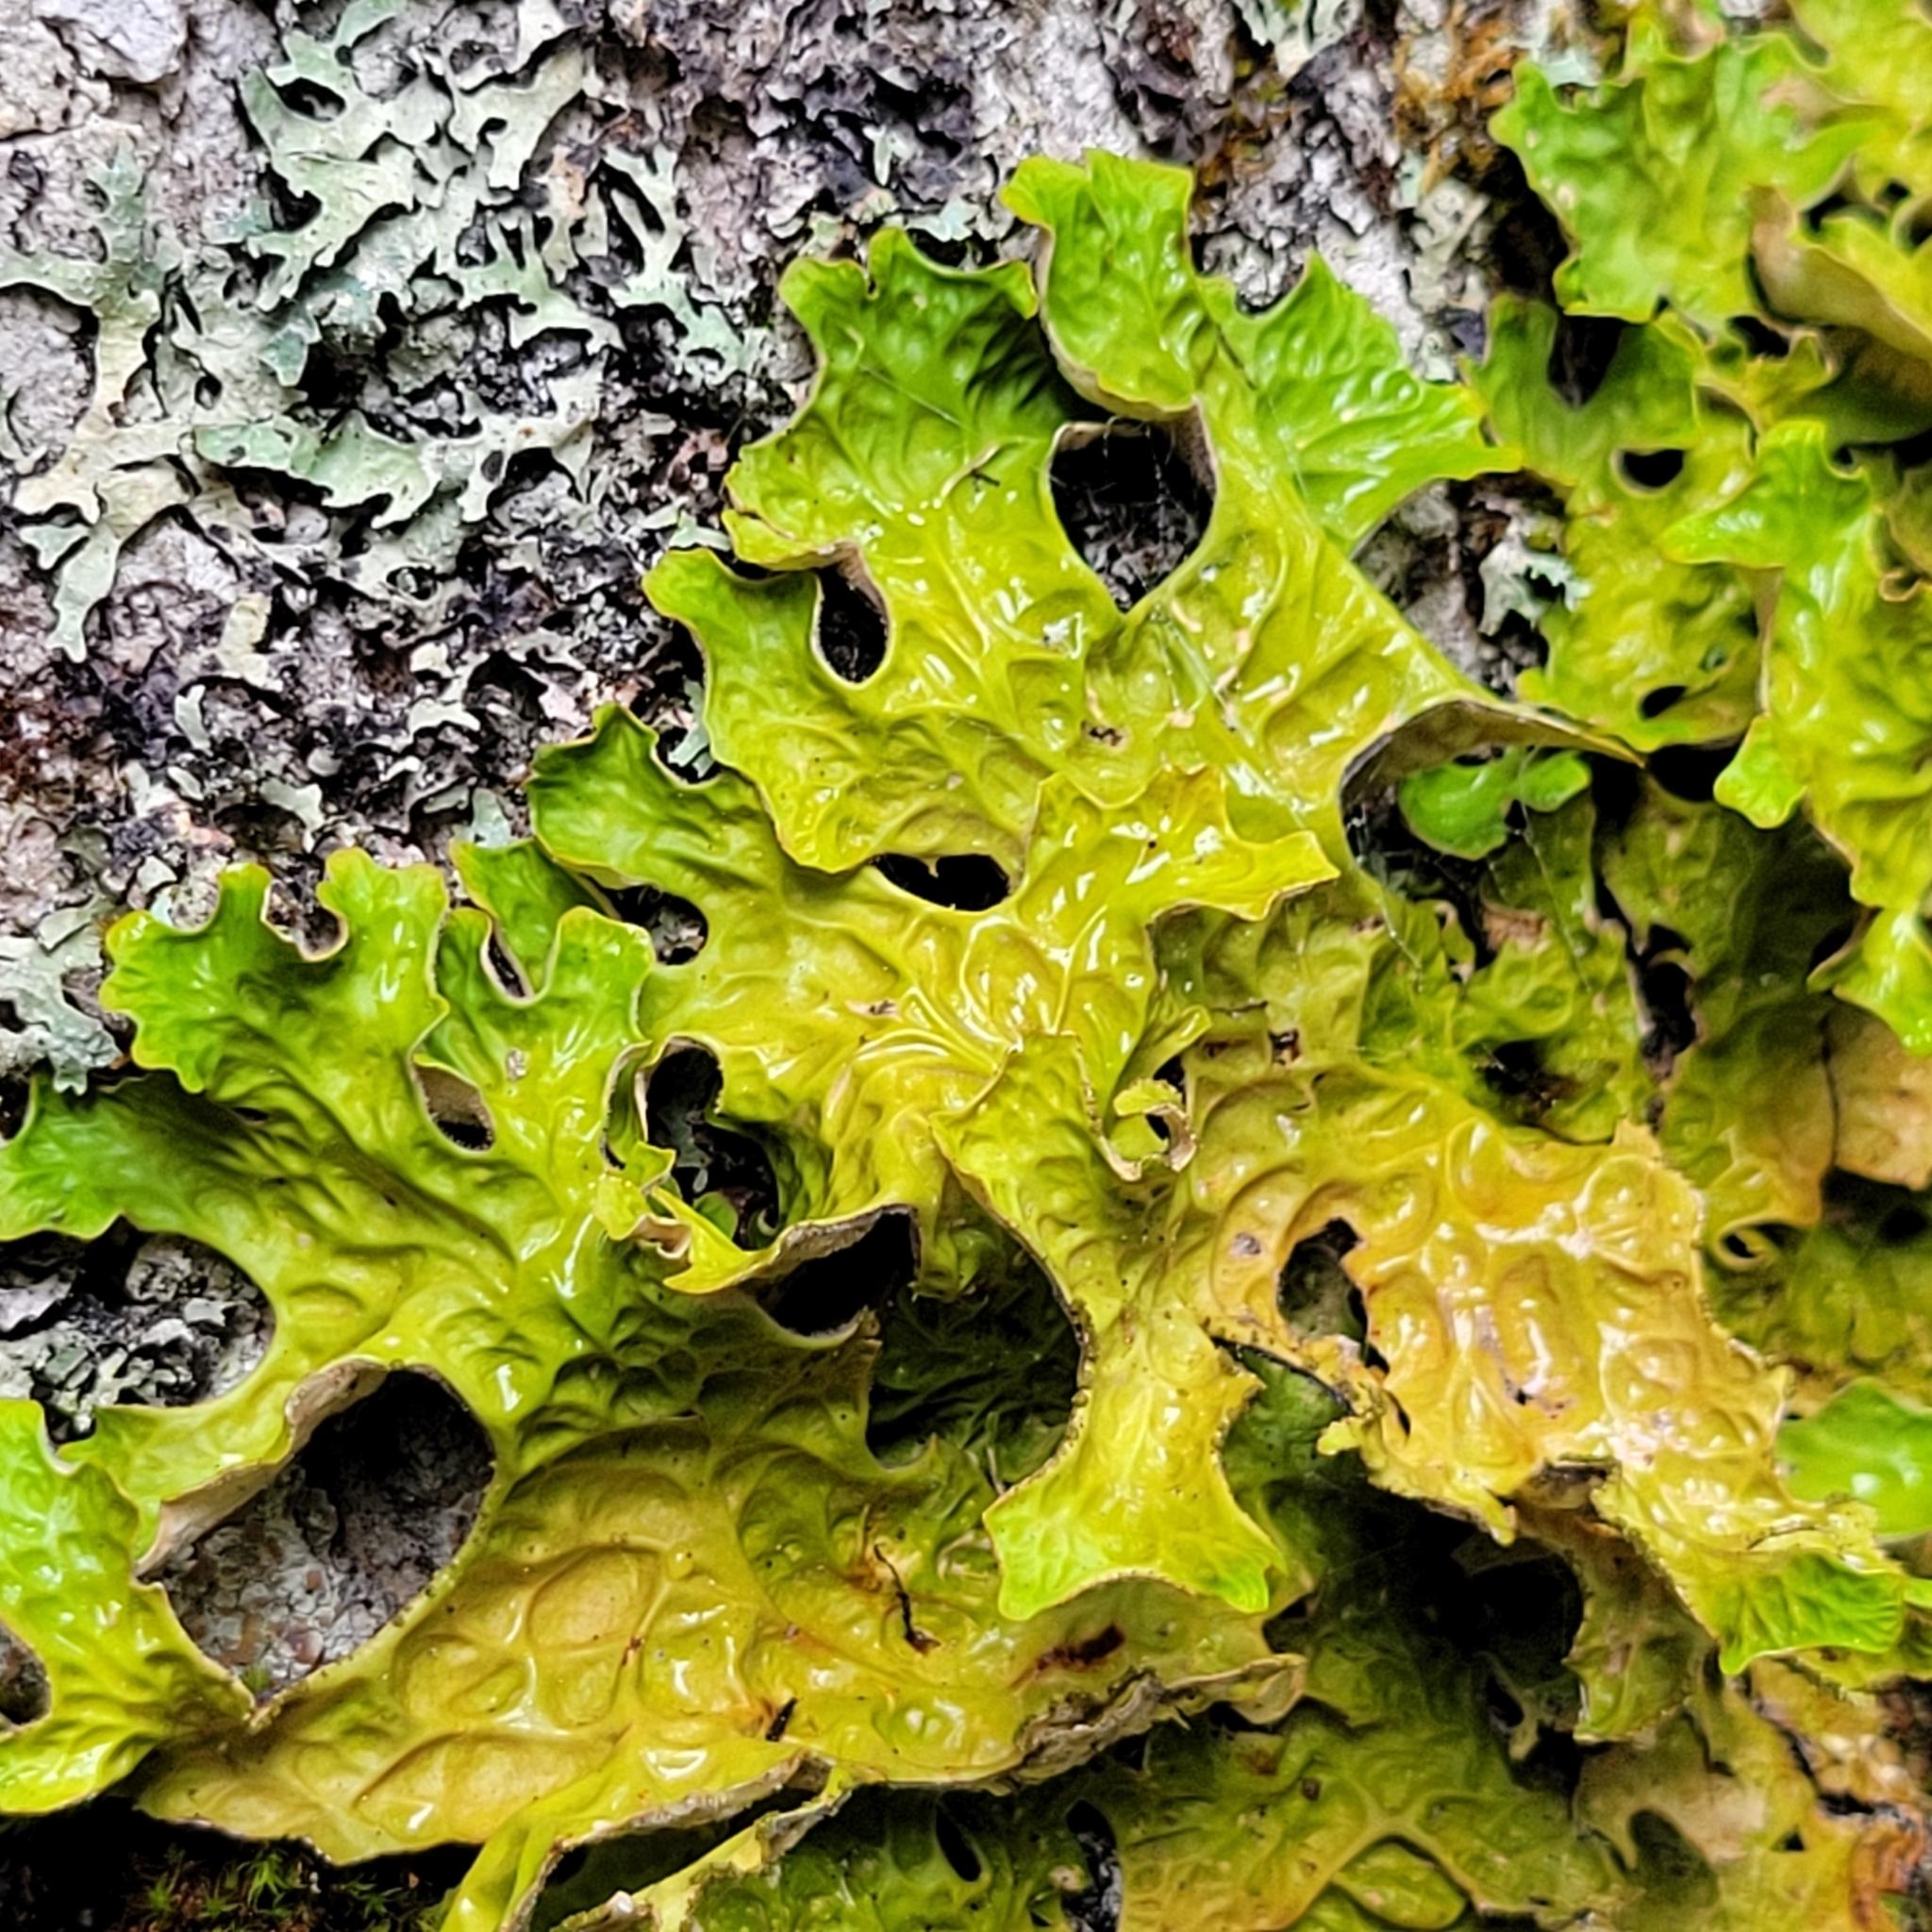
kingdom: Fungi
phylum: Ascomycota
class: Lecanoromycetes
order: Peltigerales
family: Lobariaceae
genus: Lobaria
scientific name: Lobaria pulmonaria
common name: Lungwort
